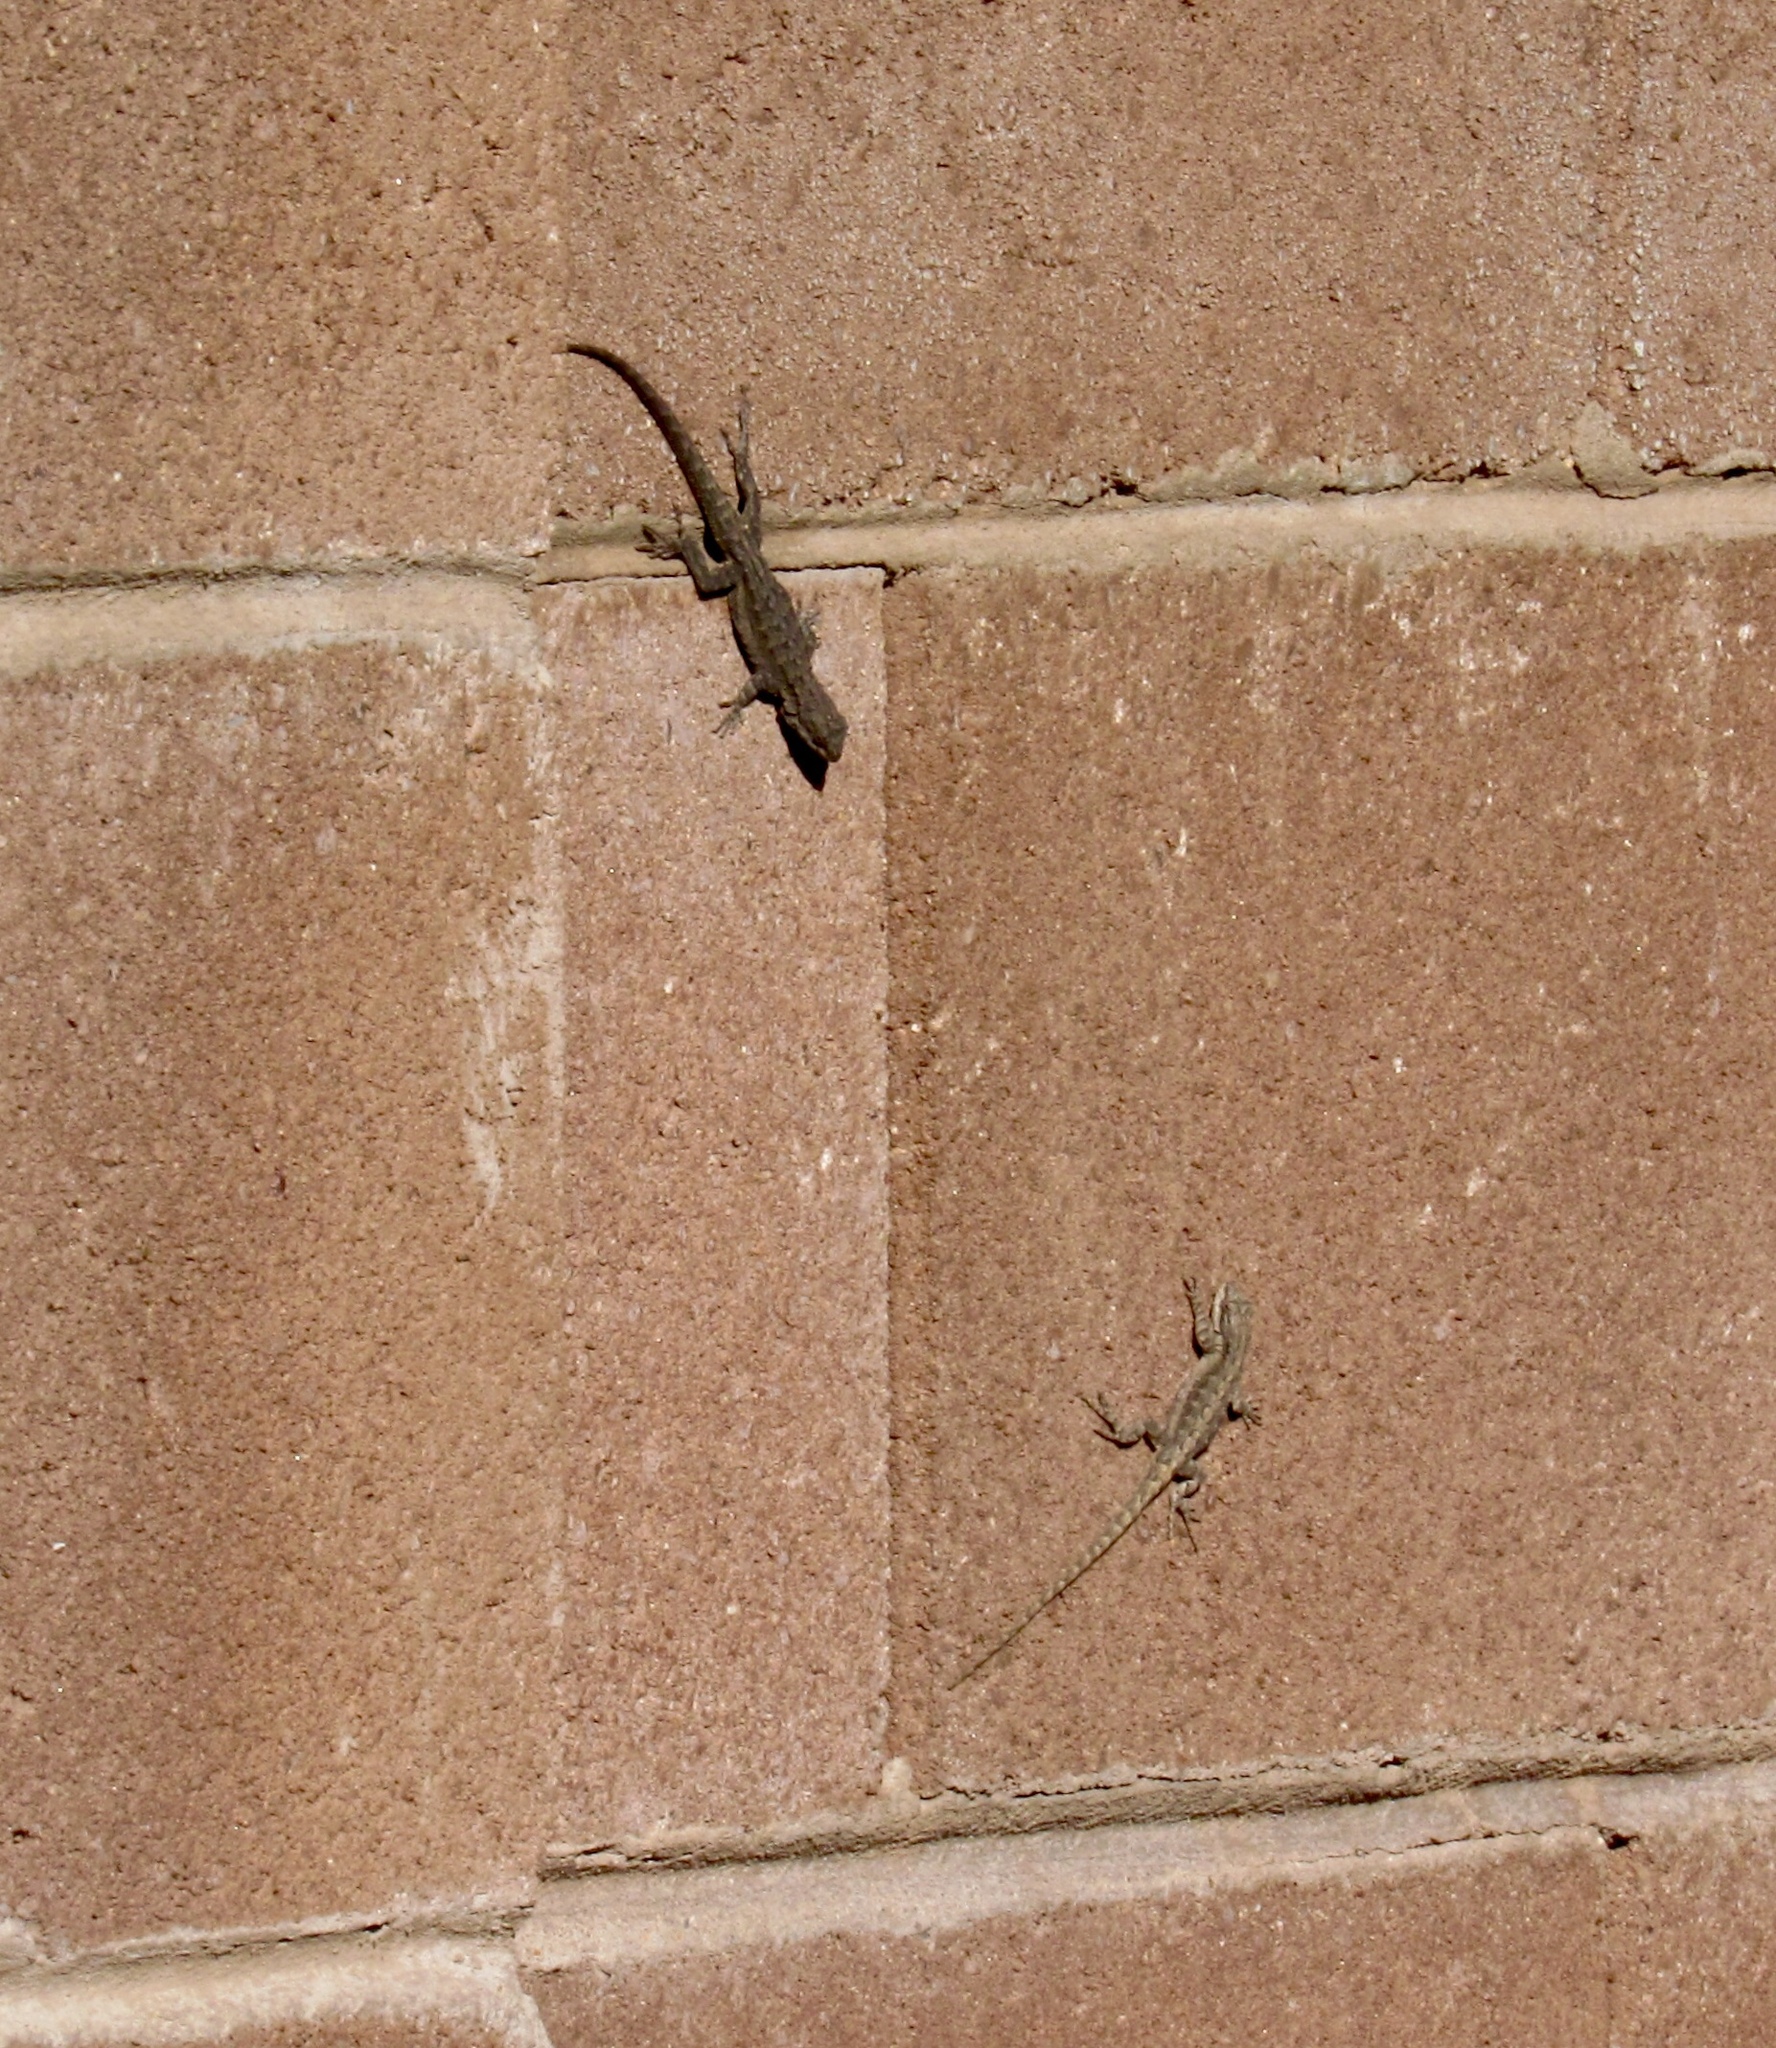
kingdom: Animalia
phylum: Chordata
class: Squamata
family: Phrynosomatidae
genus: Urosaurus
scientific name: Urosaurus ornatus
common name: Ornate tree lizard
